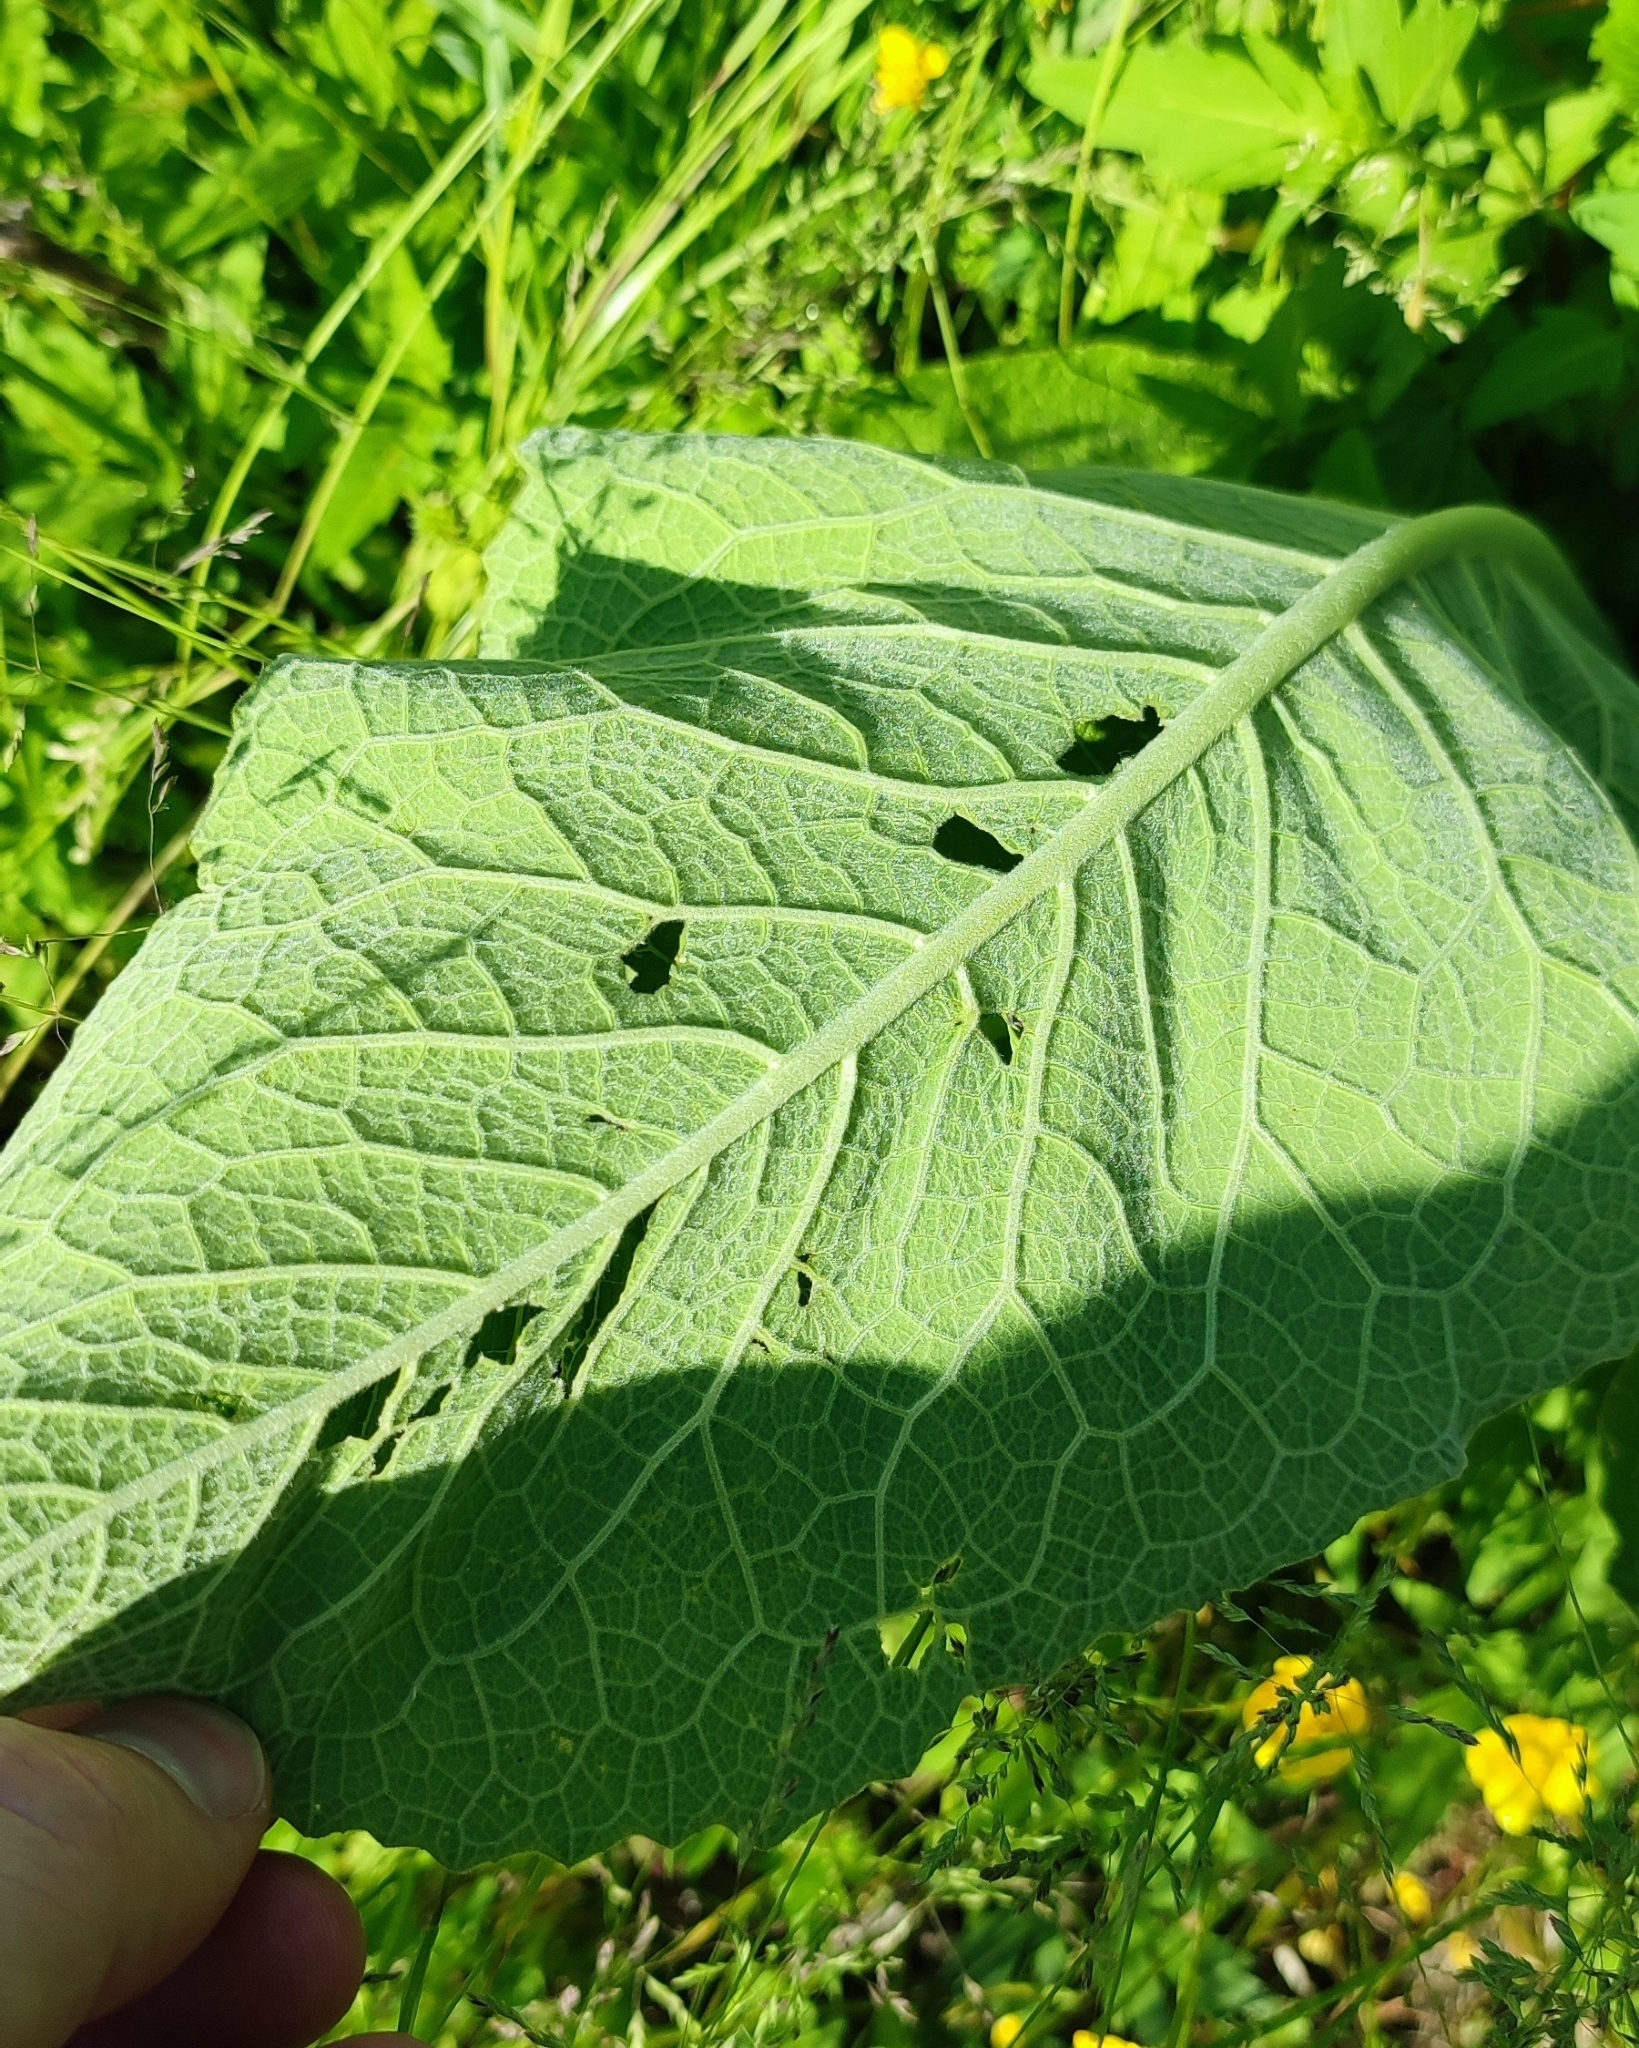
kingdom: Plantae
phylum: Tracheophyta
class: Magnoliopsida
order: Asterales
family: Asteraceae
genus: Inula
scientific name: Inula helenium
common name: Elecampane
